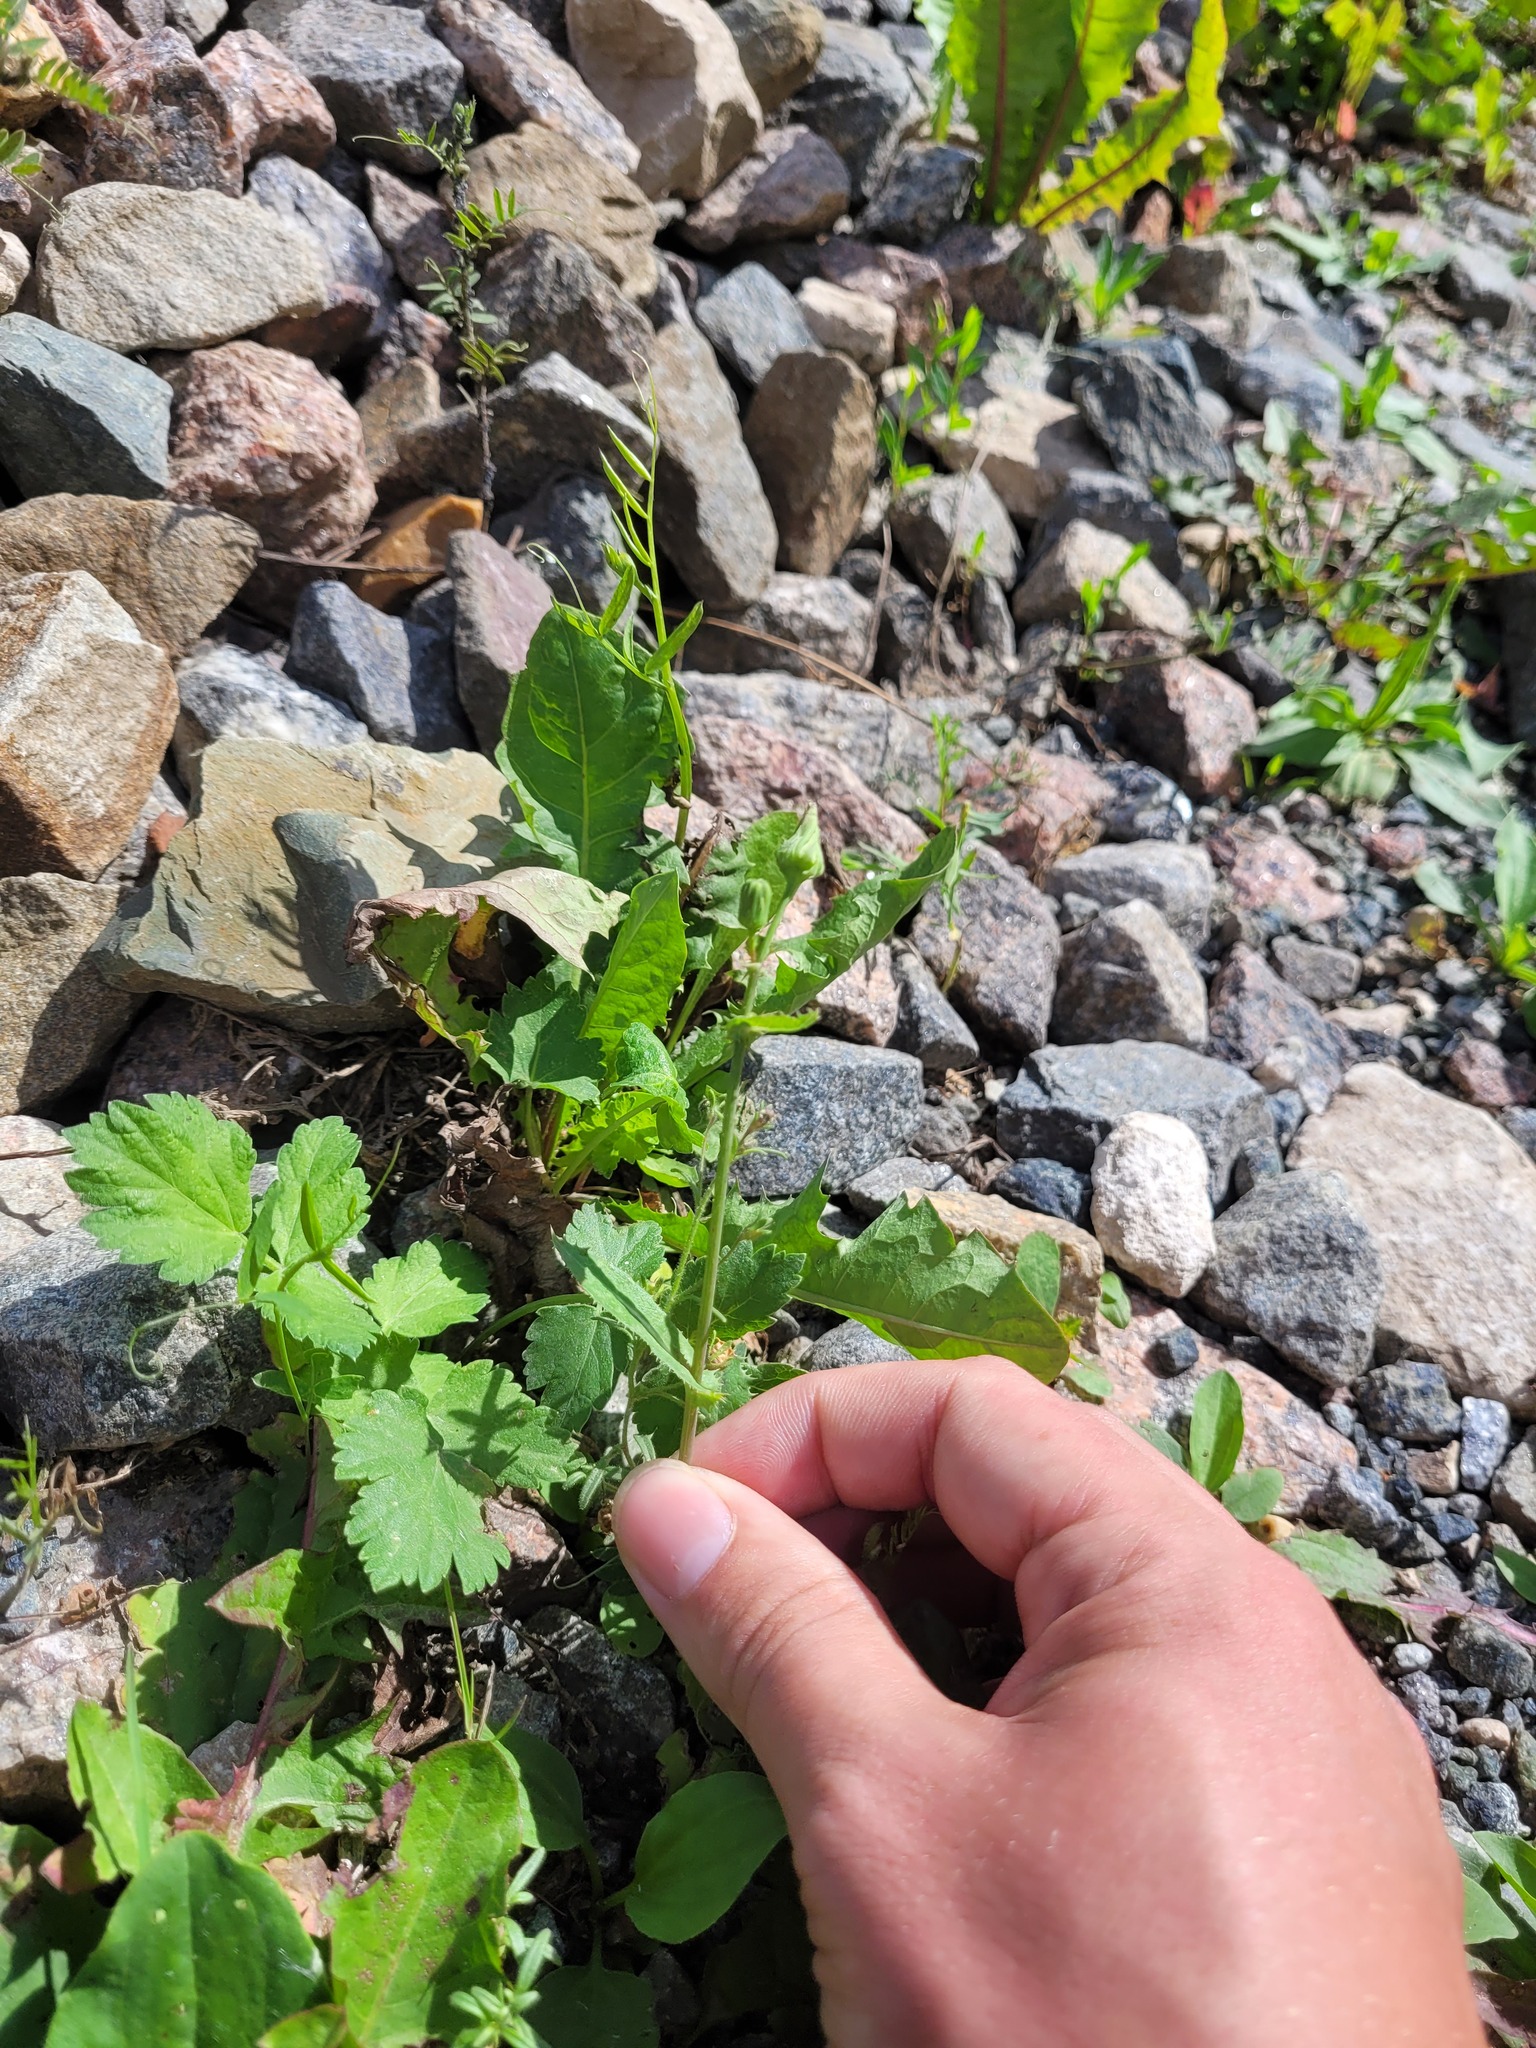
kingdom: Plantae
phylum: Tracheophyta
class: Magnoliopsida
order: Asterales
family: Asteraceae
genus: Sonchus
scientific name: Sonchus asper
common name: Prickly sow-thistle
